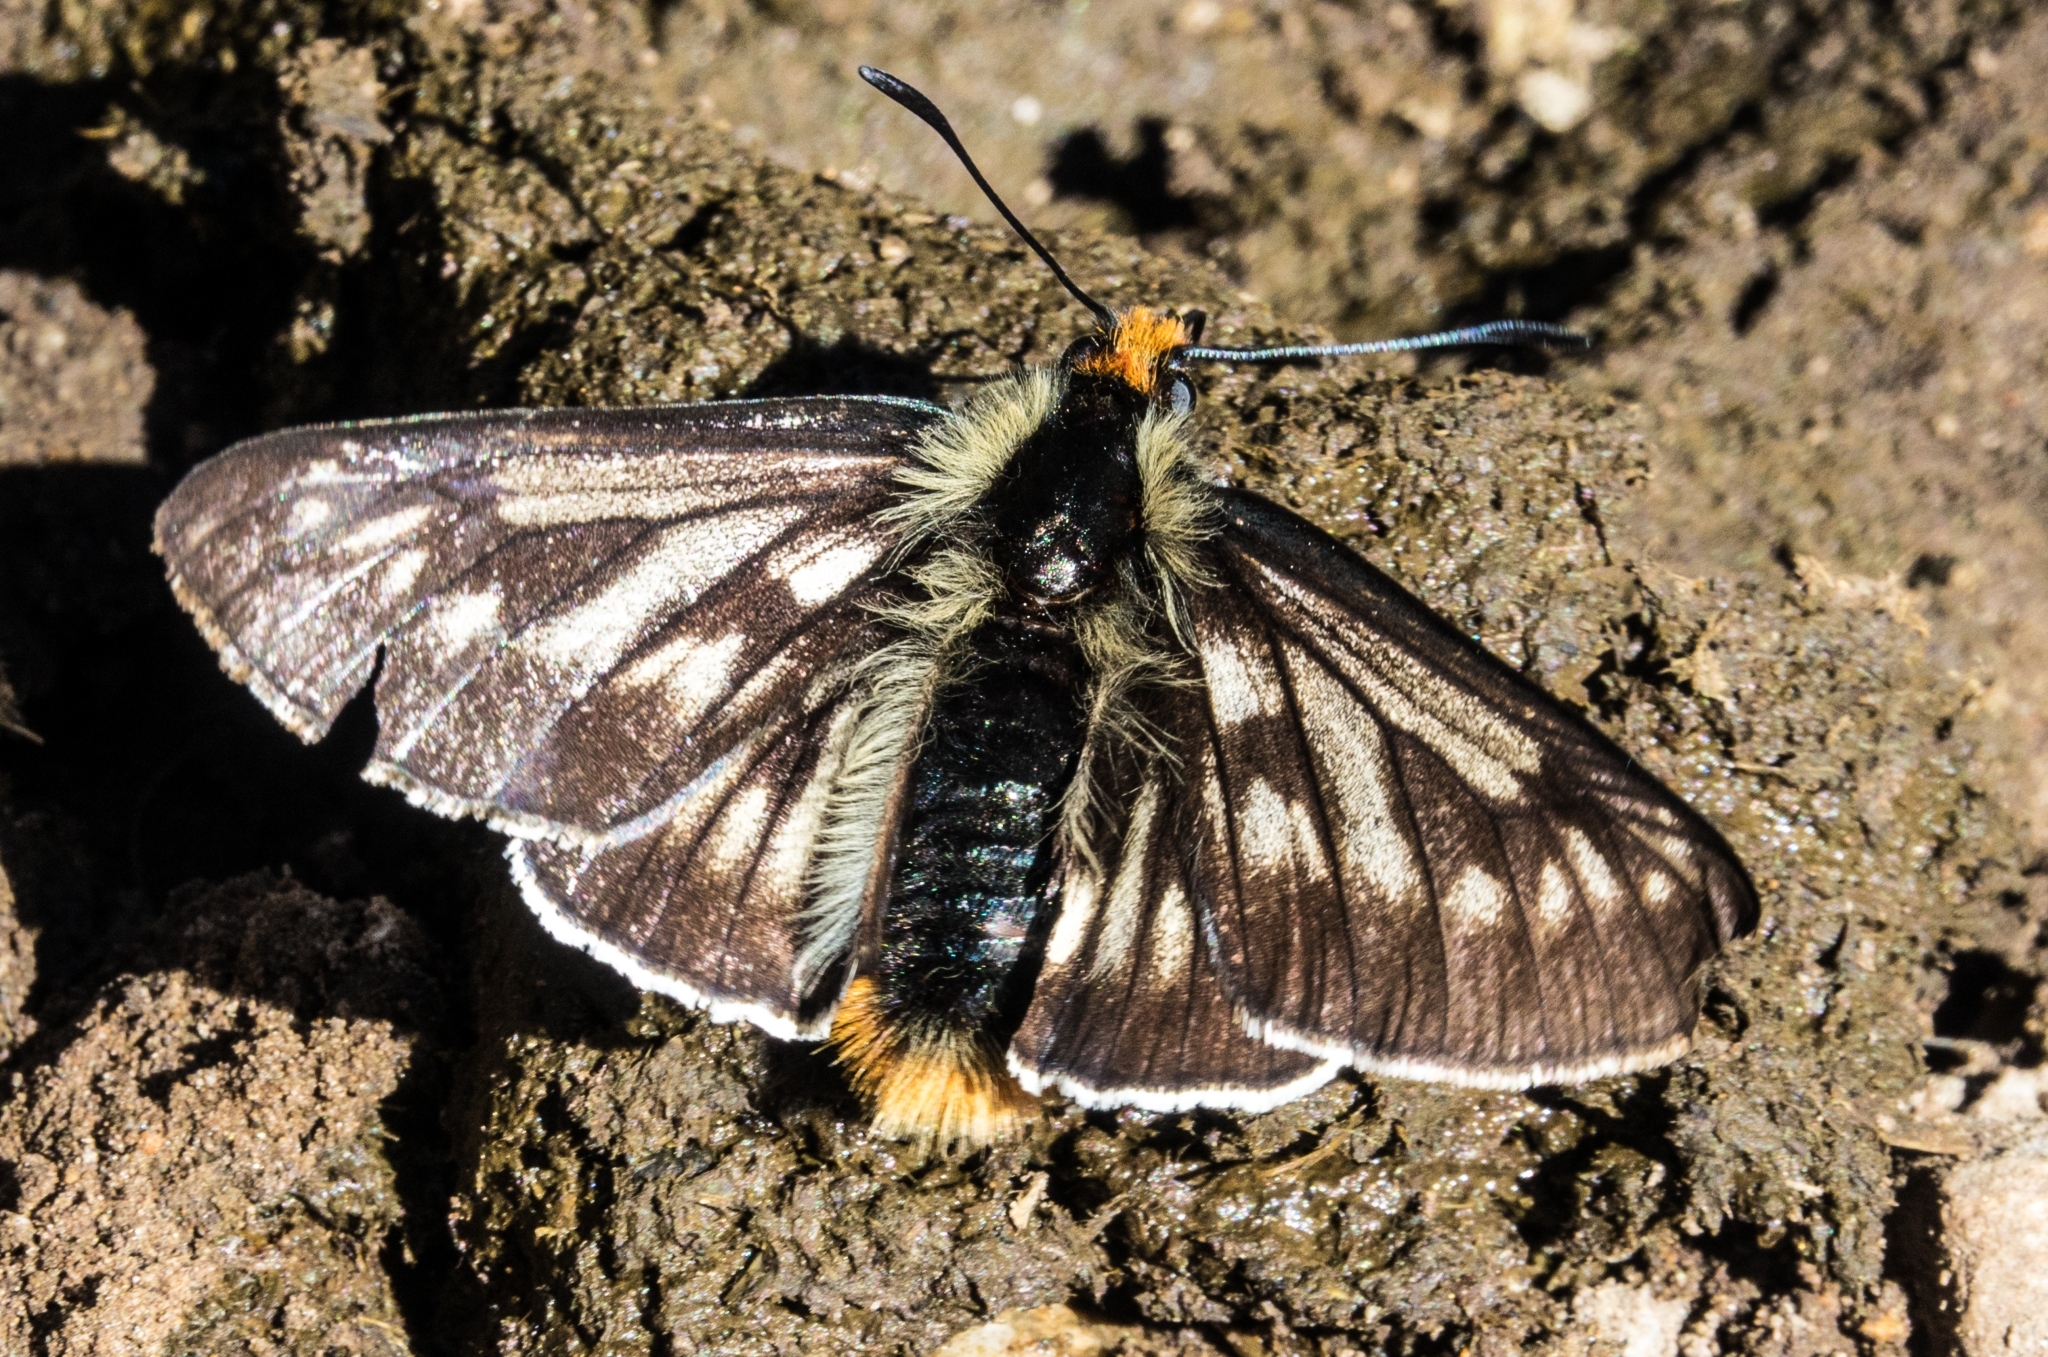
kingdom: Animalia
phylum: Arthropoda
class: Insecta
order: Lepidoptera
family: Hesperiidae
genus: Metardaris
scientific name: Metardaris cosinga
